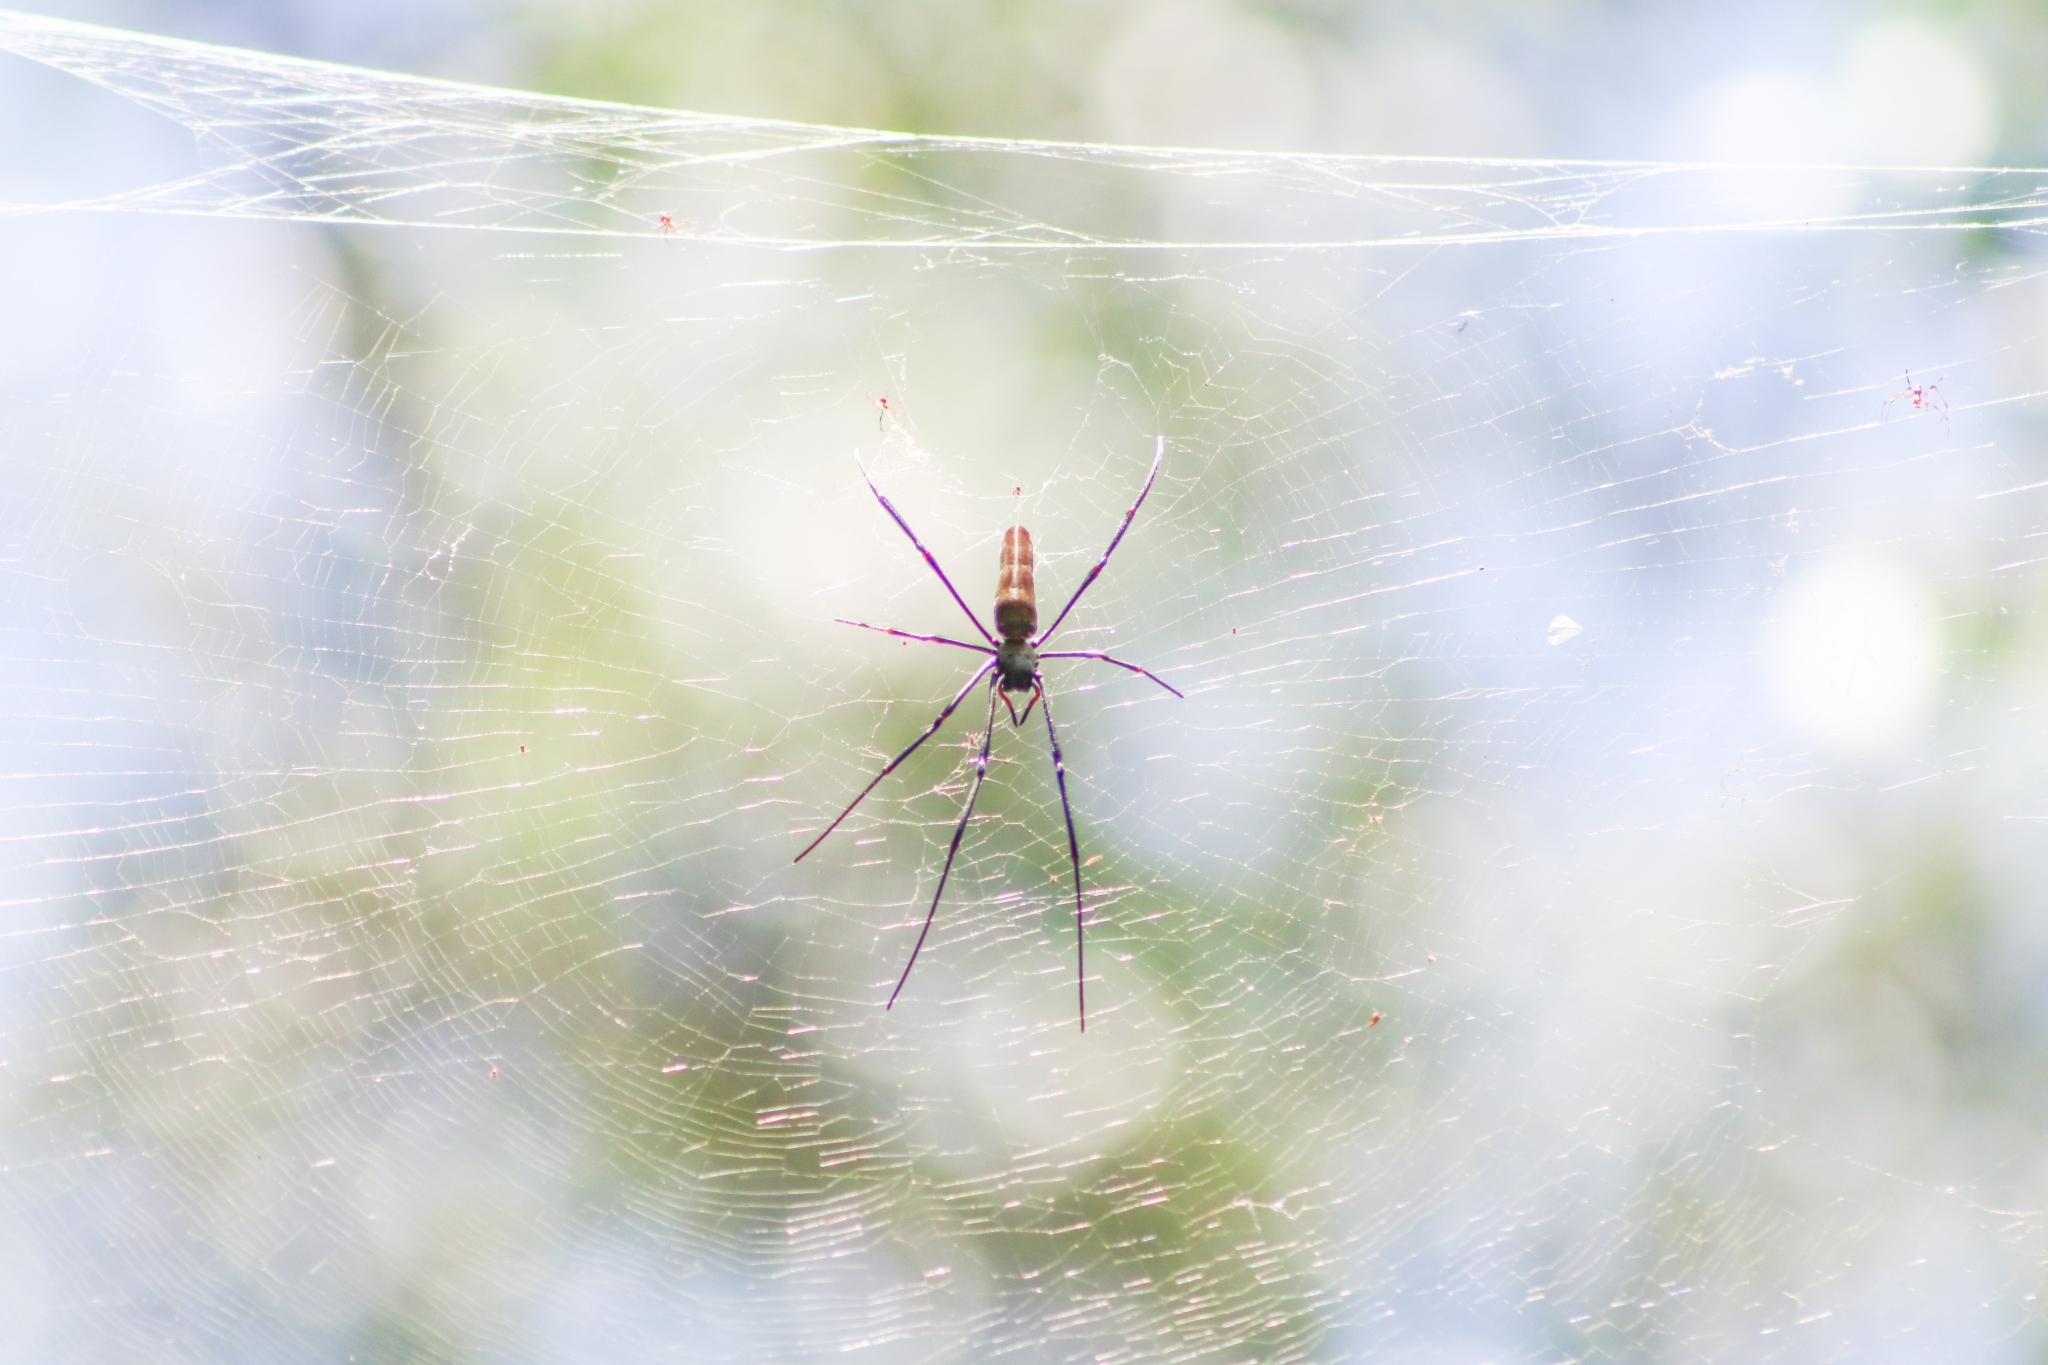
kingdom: Animalia
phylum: Arthropoda
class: Arachnida
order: Araneae
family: Araneidae
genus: Nephila
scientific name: Nephila pilipes
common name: Giant golden orb weaver
